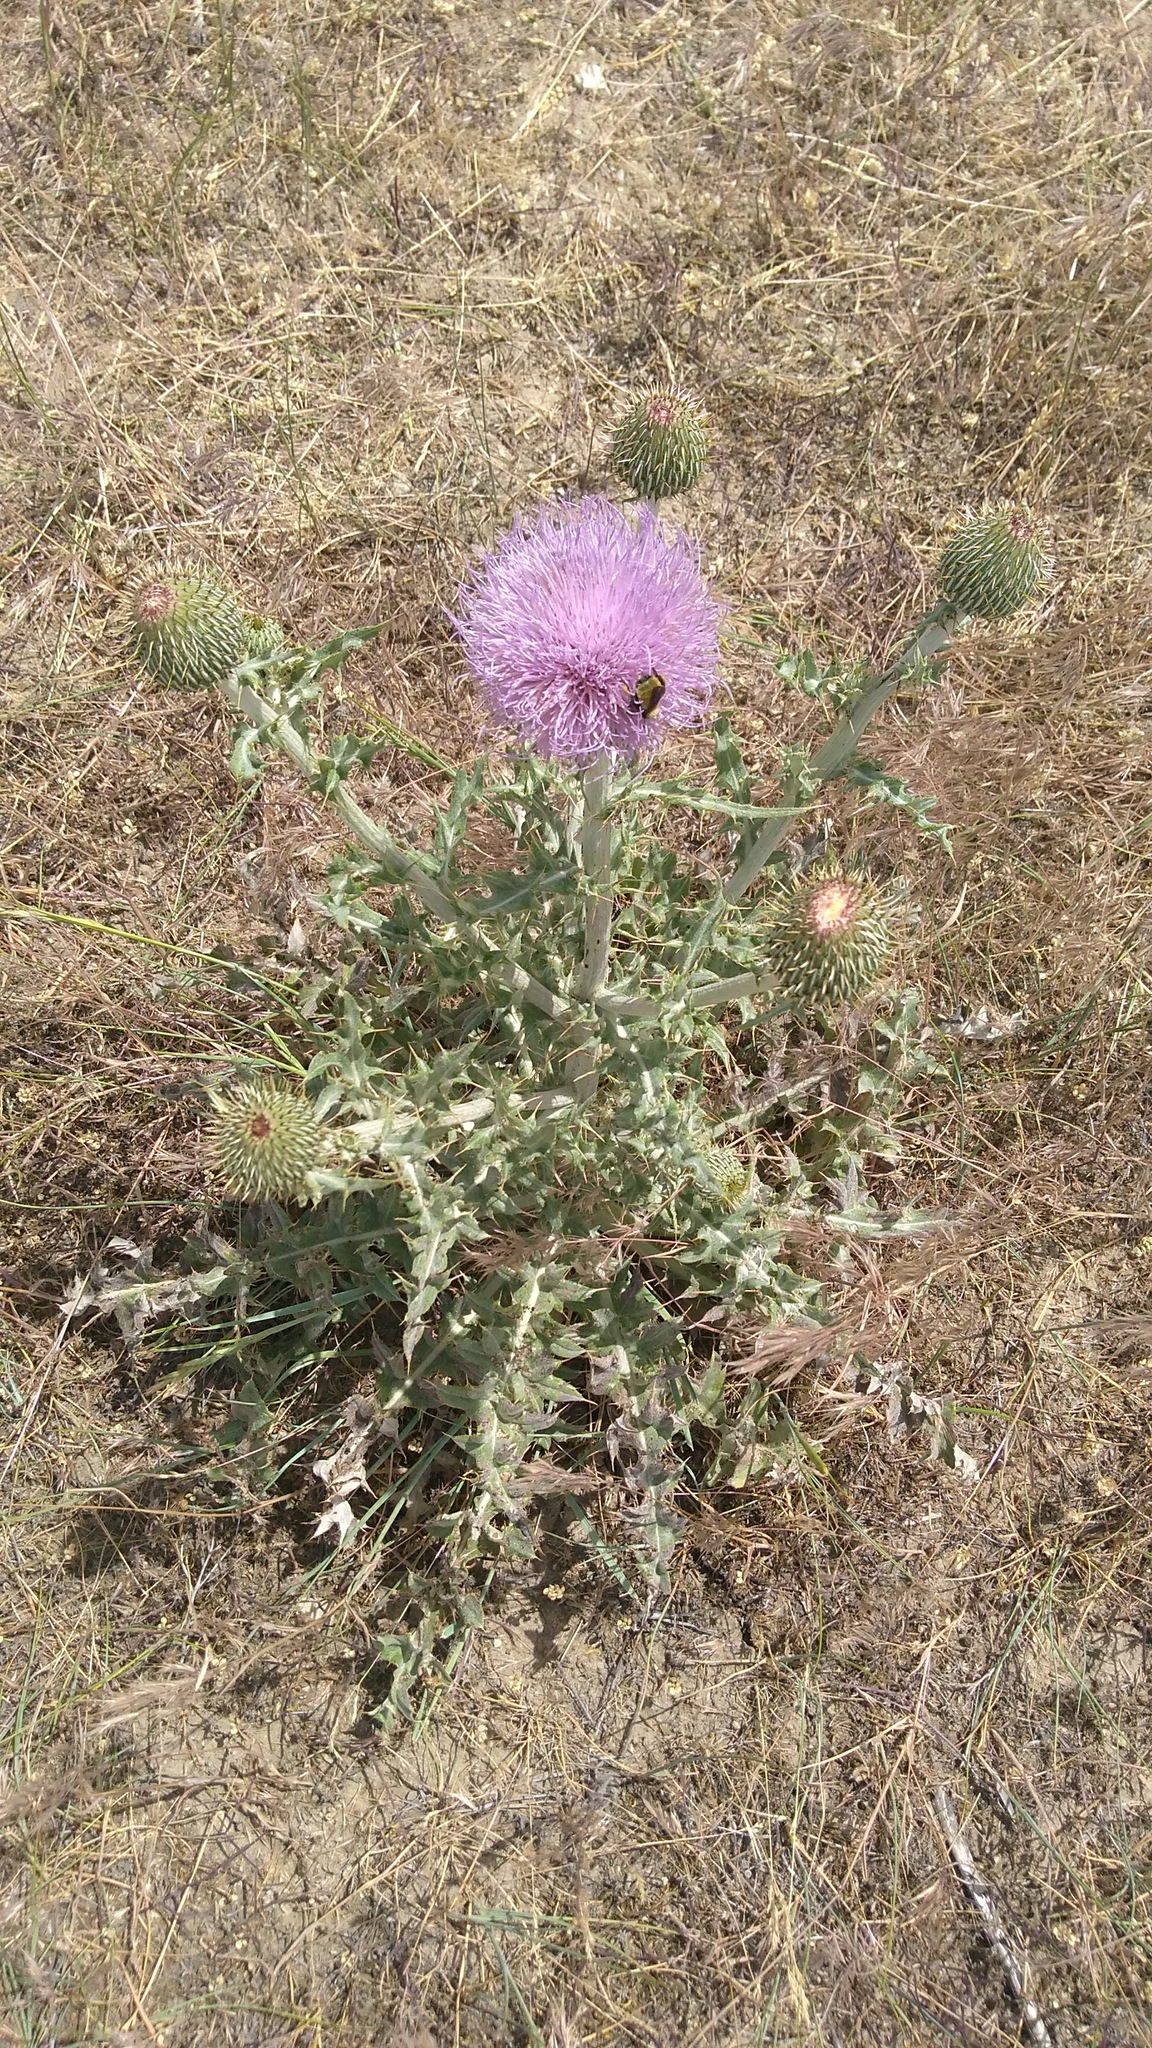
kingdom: Plantae
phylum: Tracheophyta
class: Magnoliopsida
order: Asterales
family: Asteraceae
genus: Cirsium
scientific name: Cirsium undulatum
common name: Pasture thistle
